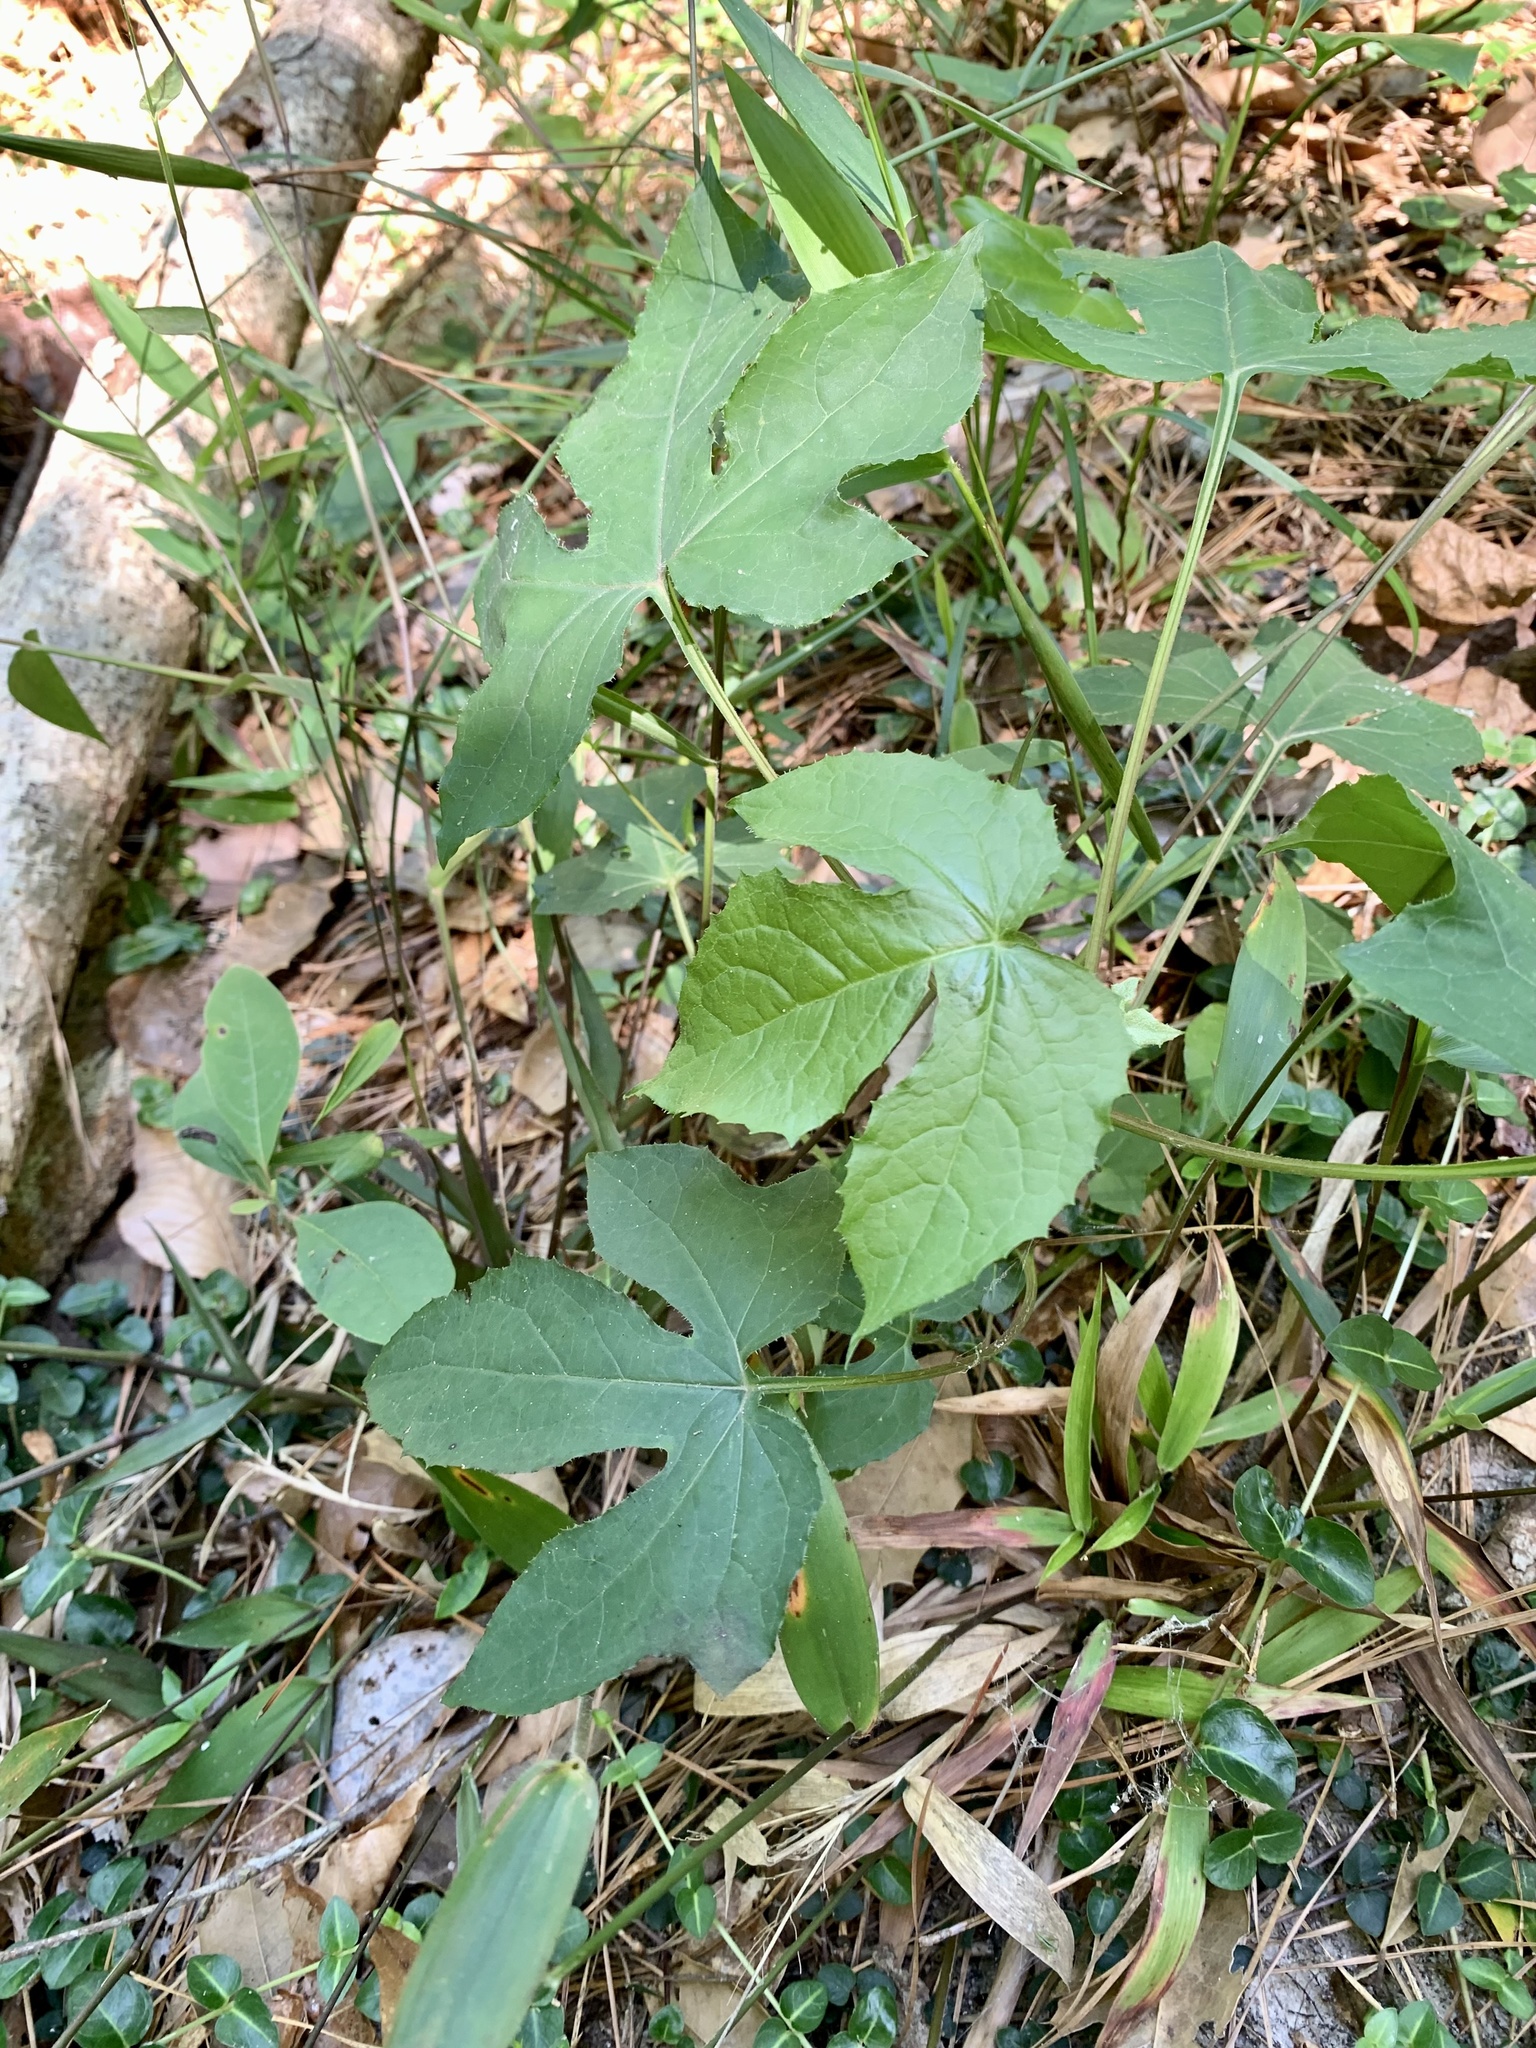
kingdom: Plantae
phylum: Tracheophyta
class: Magnoliopsida
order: Asterales
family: Asteraceae
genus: Nabalus
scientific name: Nabalus altissima
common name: Tall rattlesnakeroot
